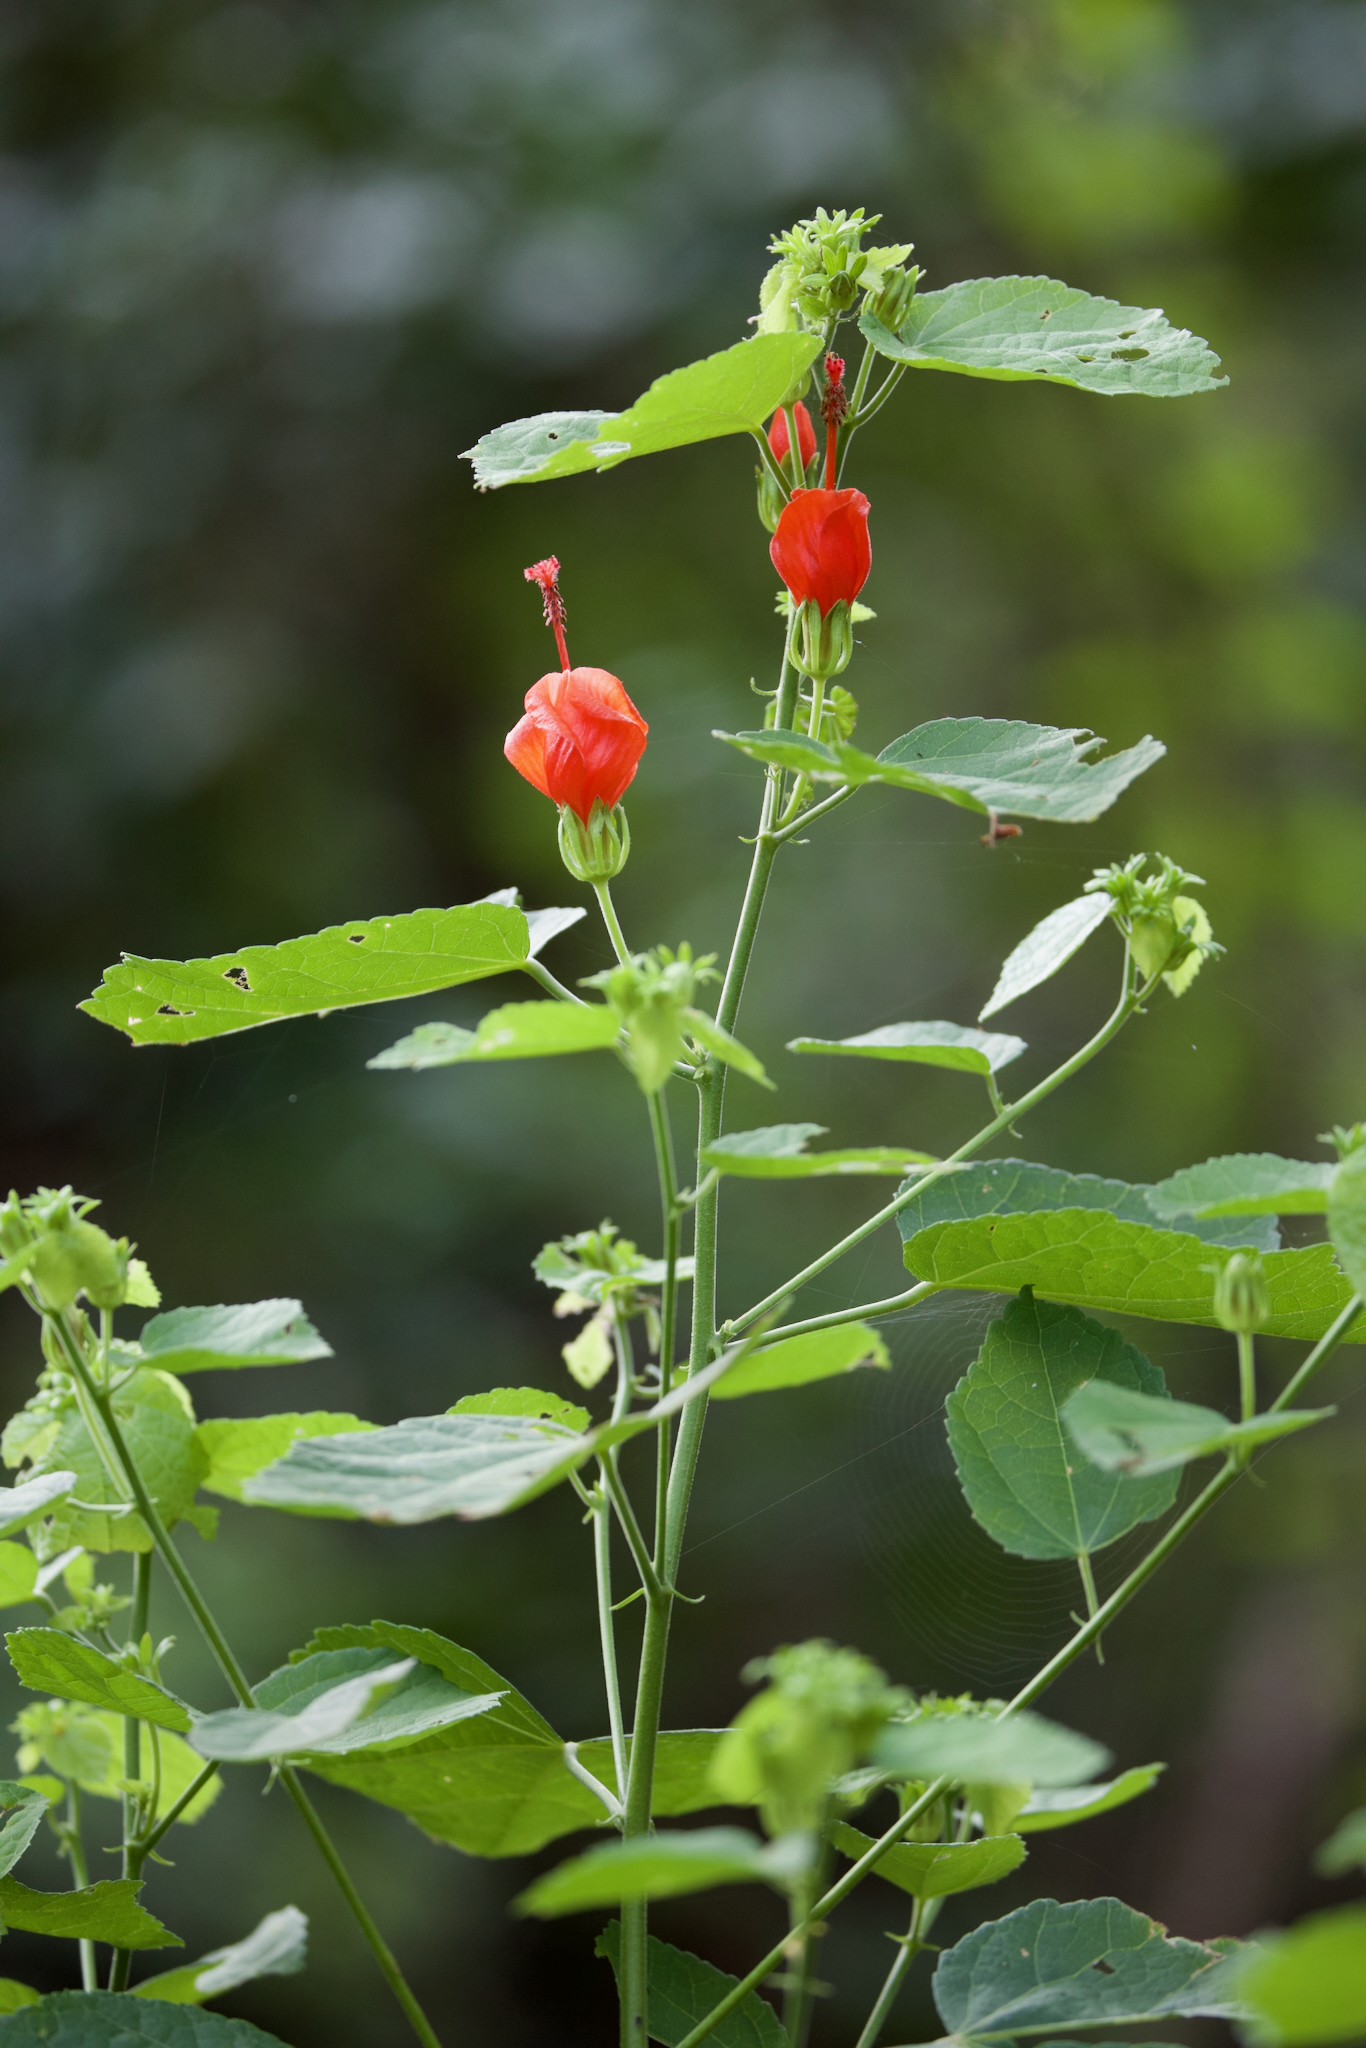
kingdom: Plantae
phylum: Tracheophyta
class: Magnoliopsida
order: Malvales
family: Malvaceae
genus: Malvaviscus
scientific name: Malvaviscus arboreus
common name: Wax mallow
